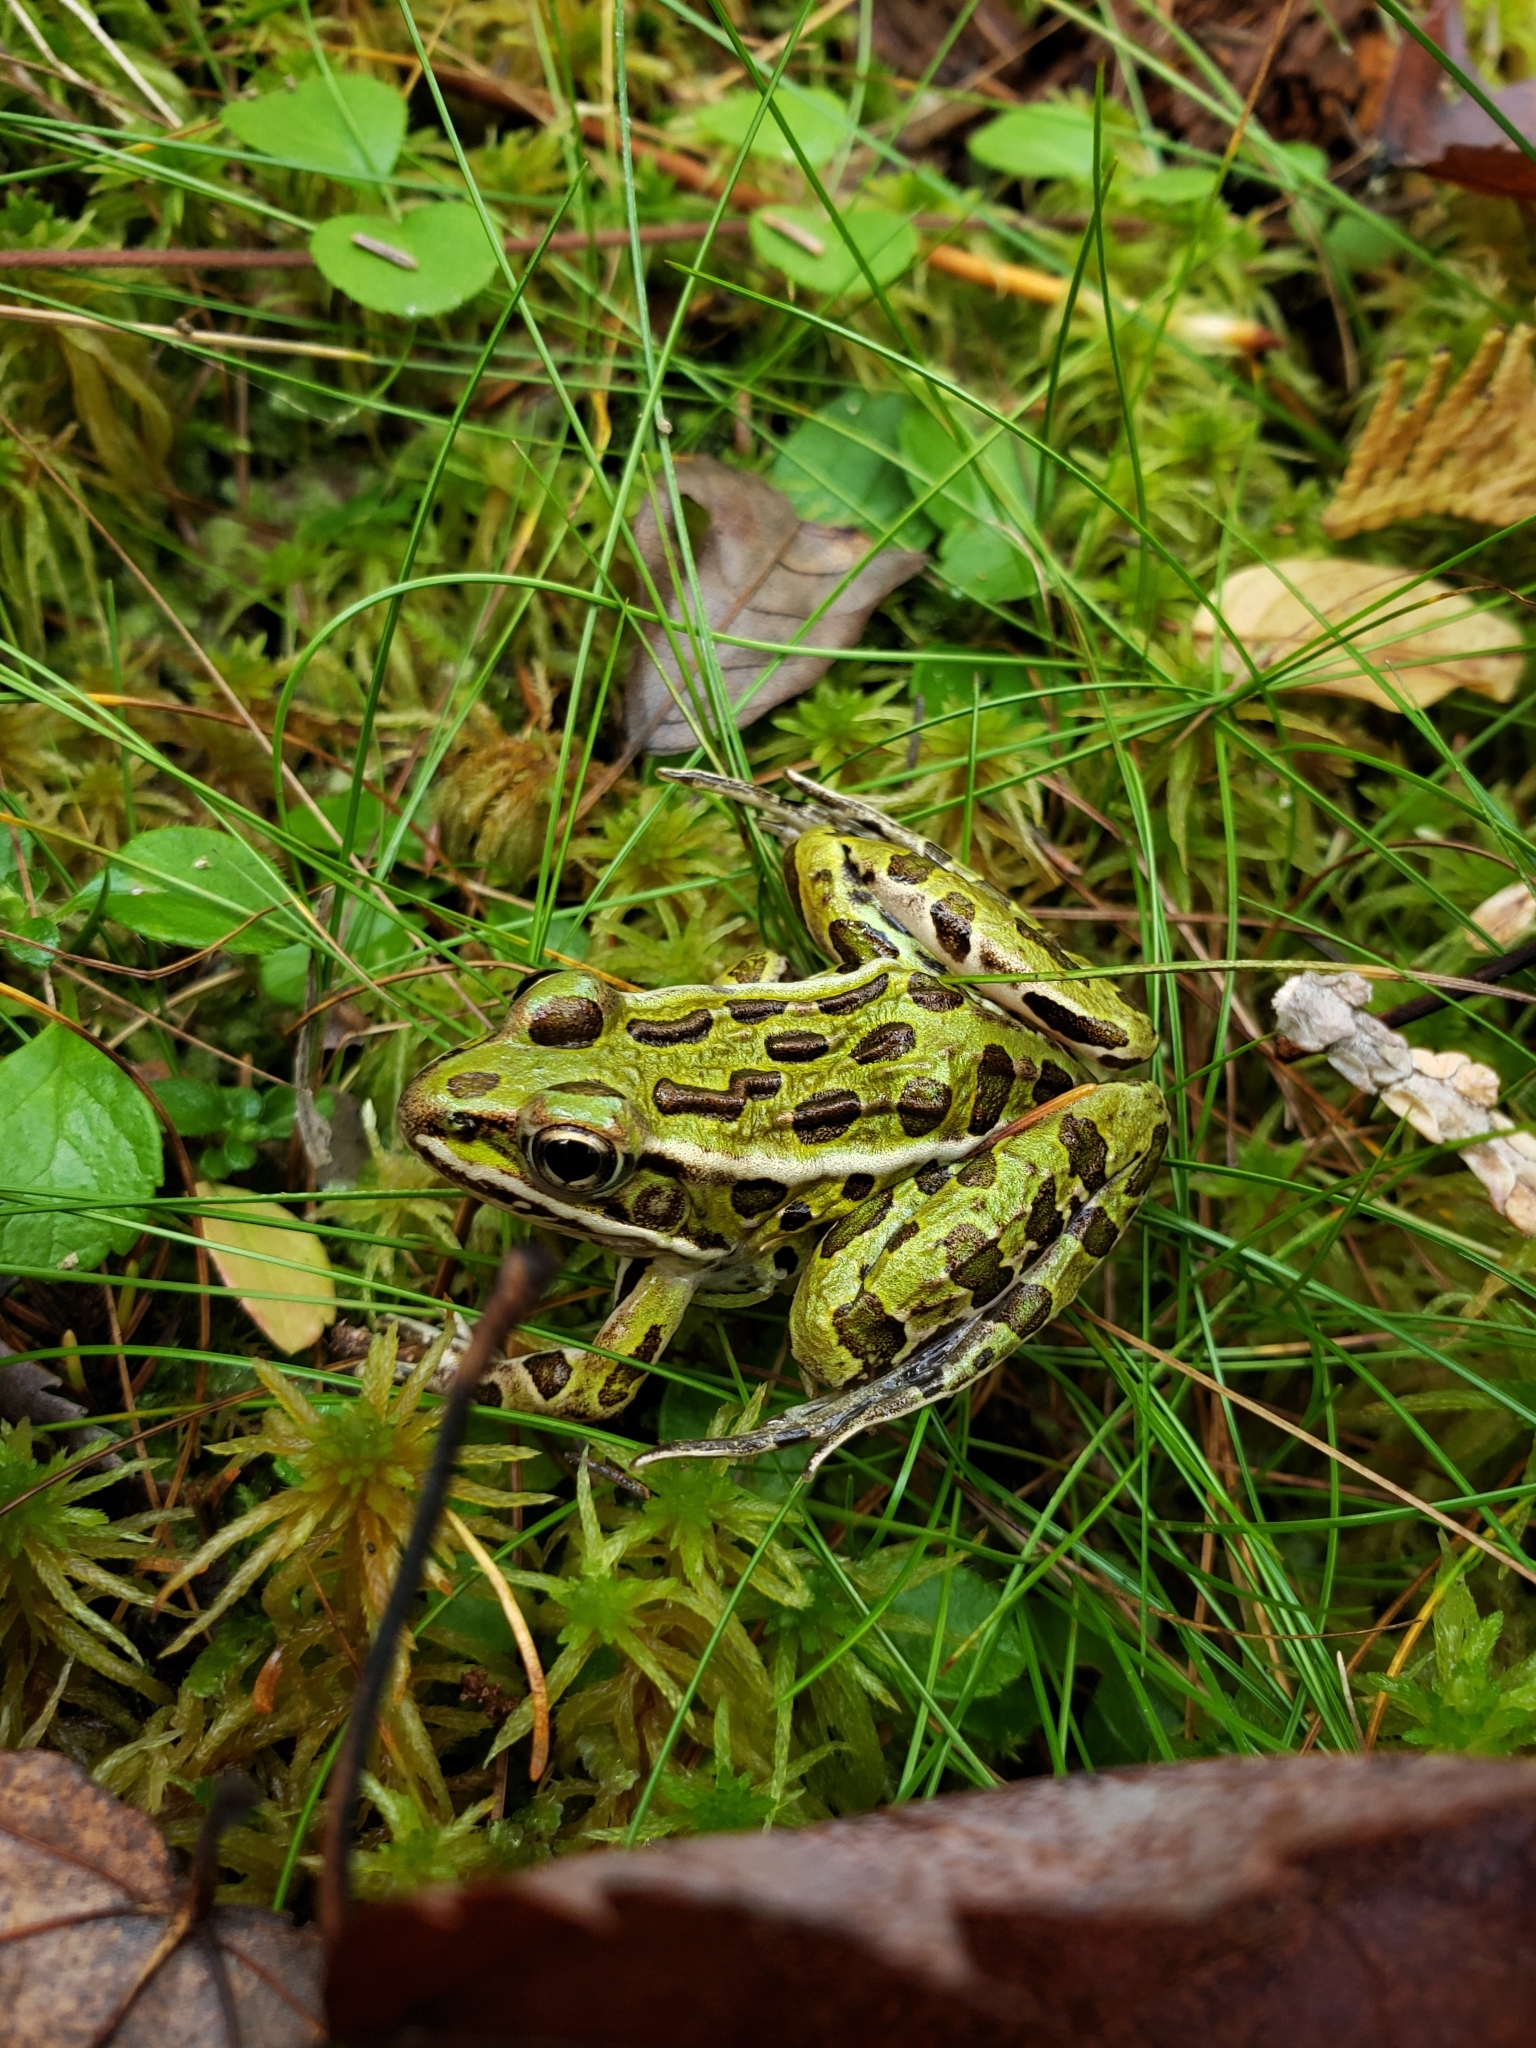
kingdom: Animalia
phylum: Chordata
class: Amphibia
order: Anura
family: Ranidae
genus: Lithobates
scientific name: Lithobates pipiens
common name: Northern leopard frog
